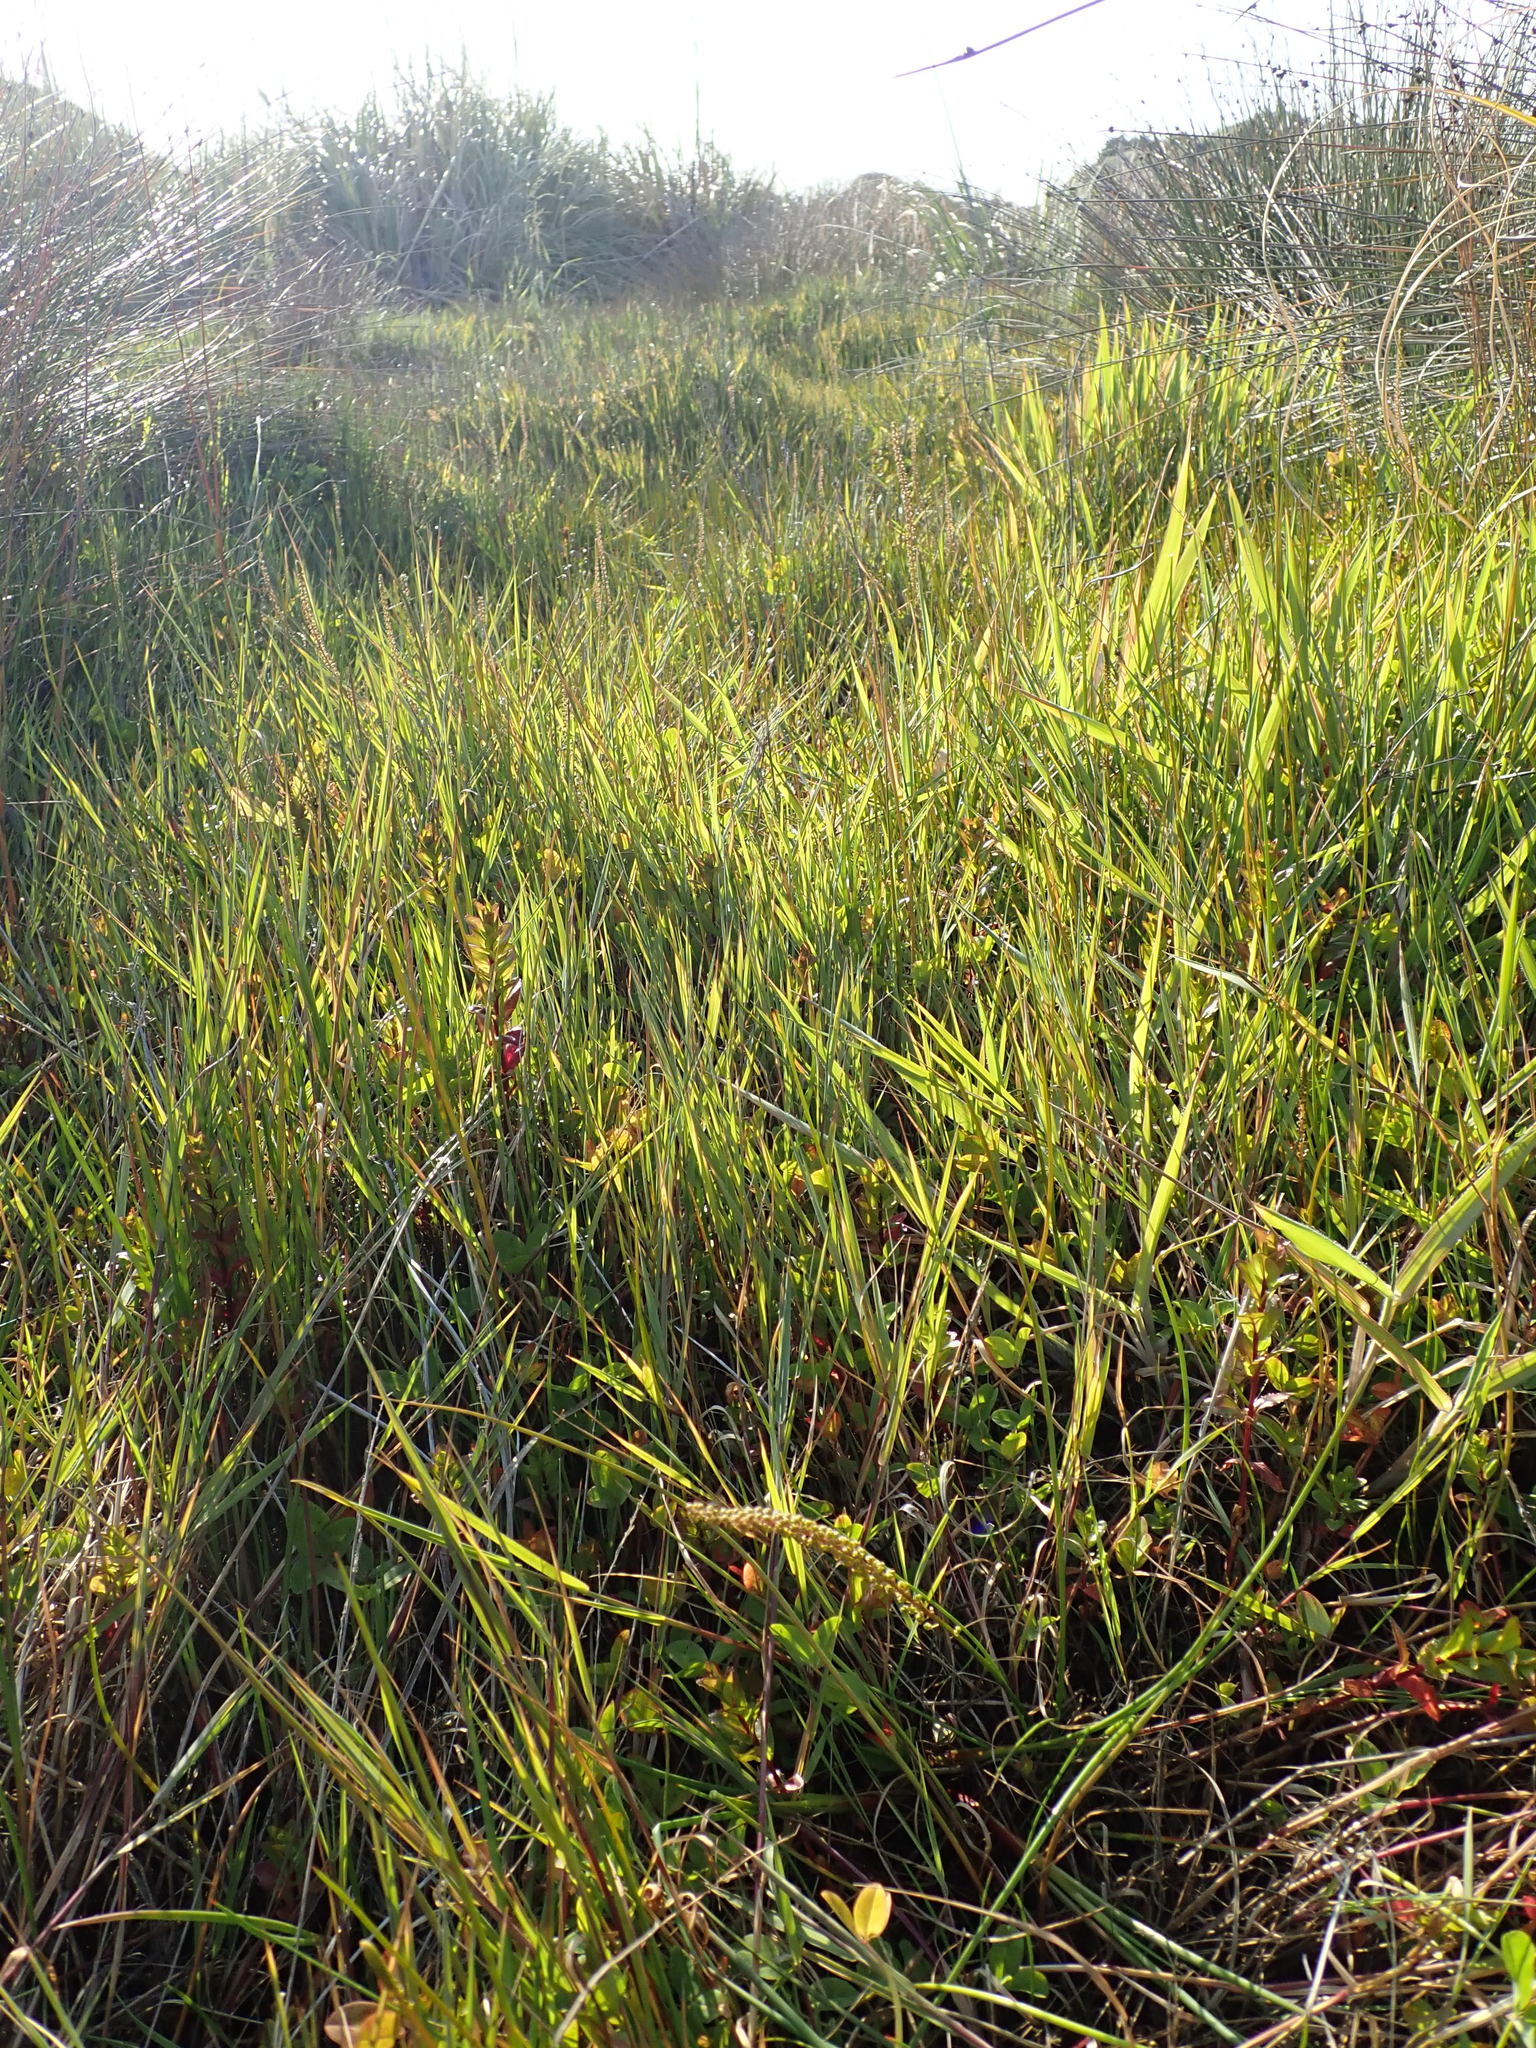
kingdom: Plantae
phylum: Tracheophyta
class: Liliopsida
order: Alismatales
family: Juncaginaceae
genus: Triglochin
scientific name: Triglochin striata
